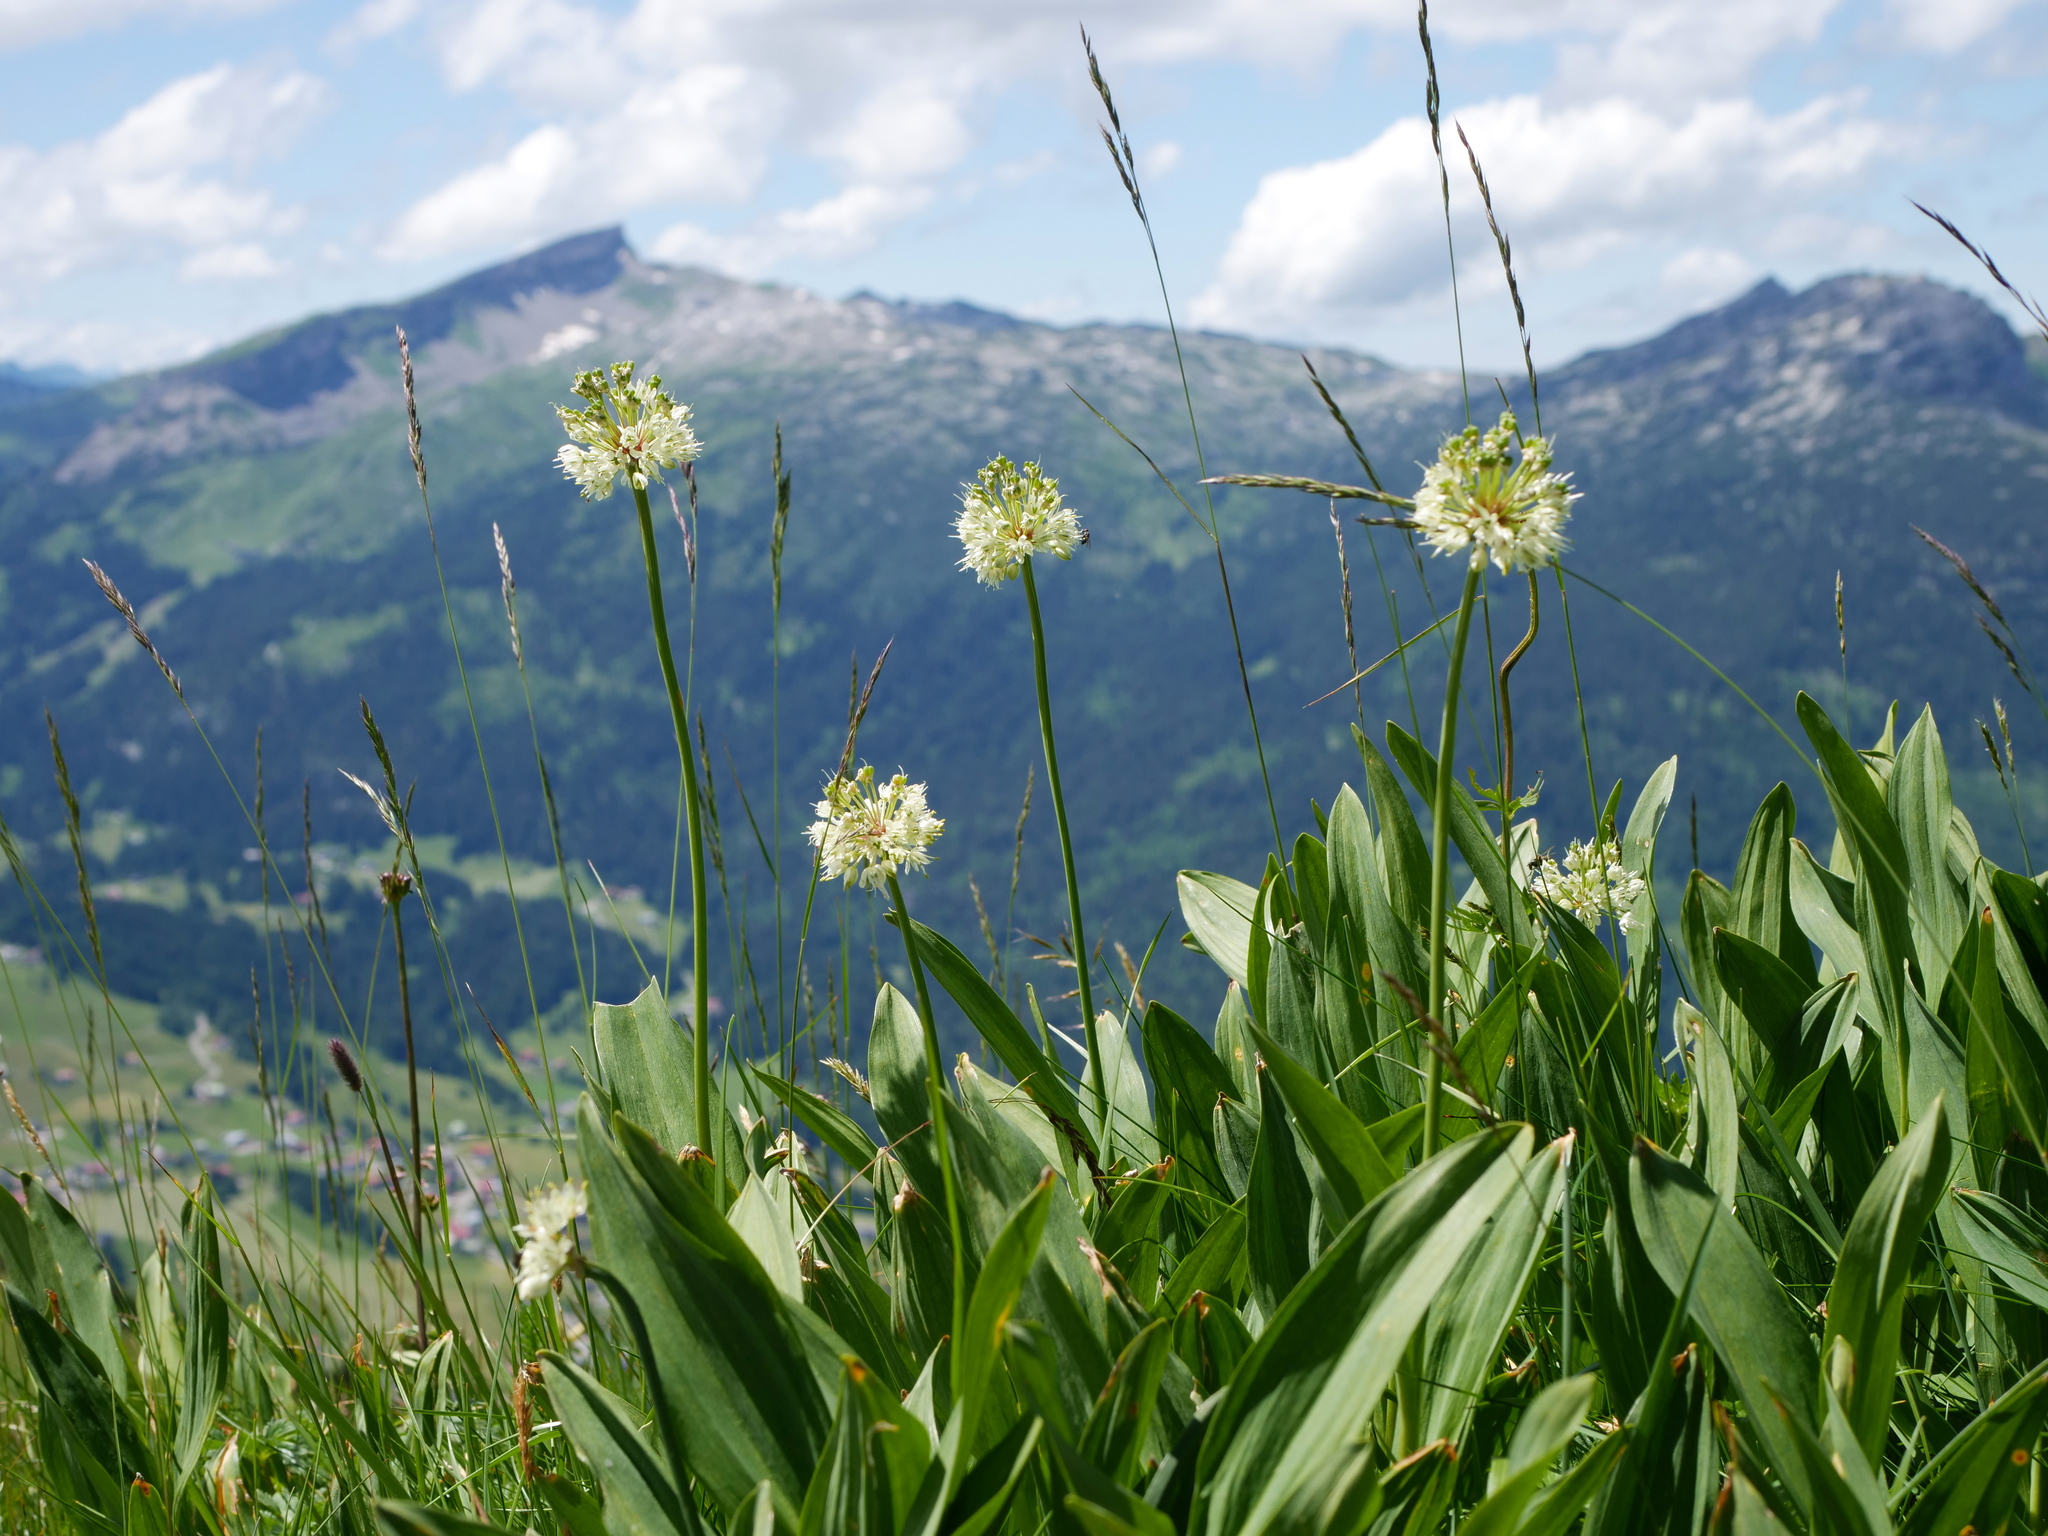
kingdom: Plantae
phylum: Tracheophyta
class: Liliopsida
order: Asparagales
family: Amaryllidaceae
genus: Allium
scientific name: Allium victorialis
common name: Alpine leek
